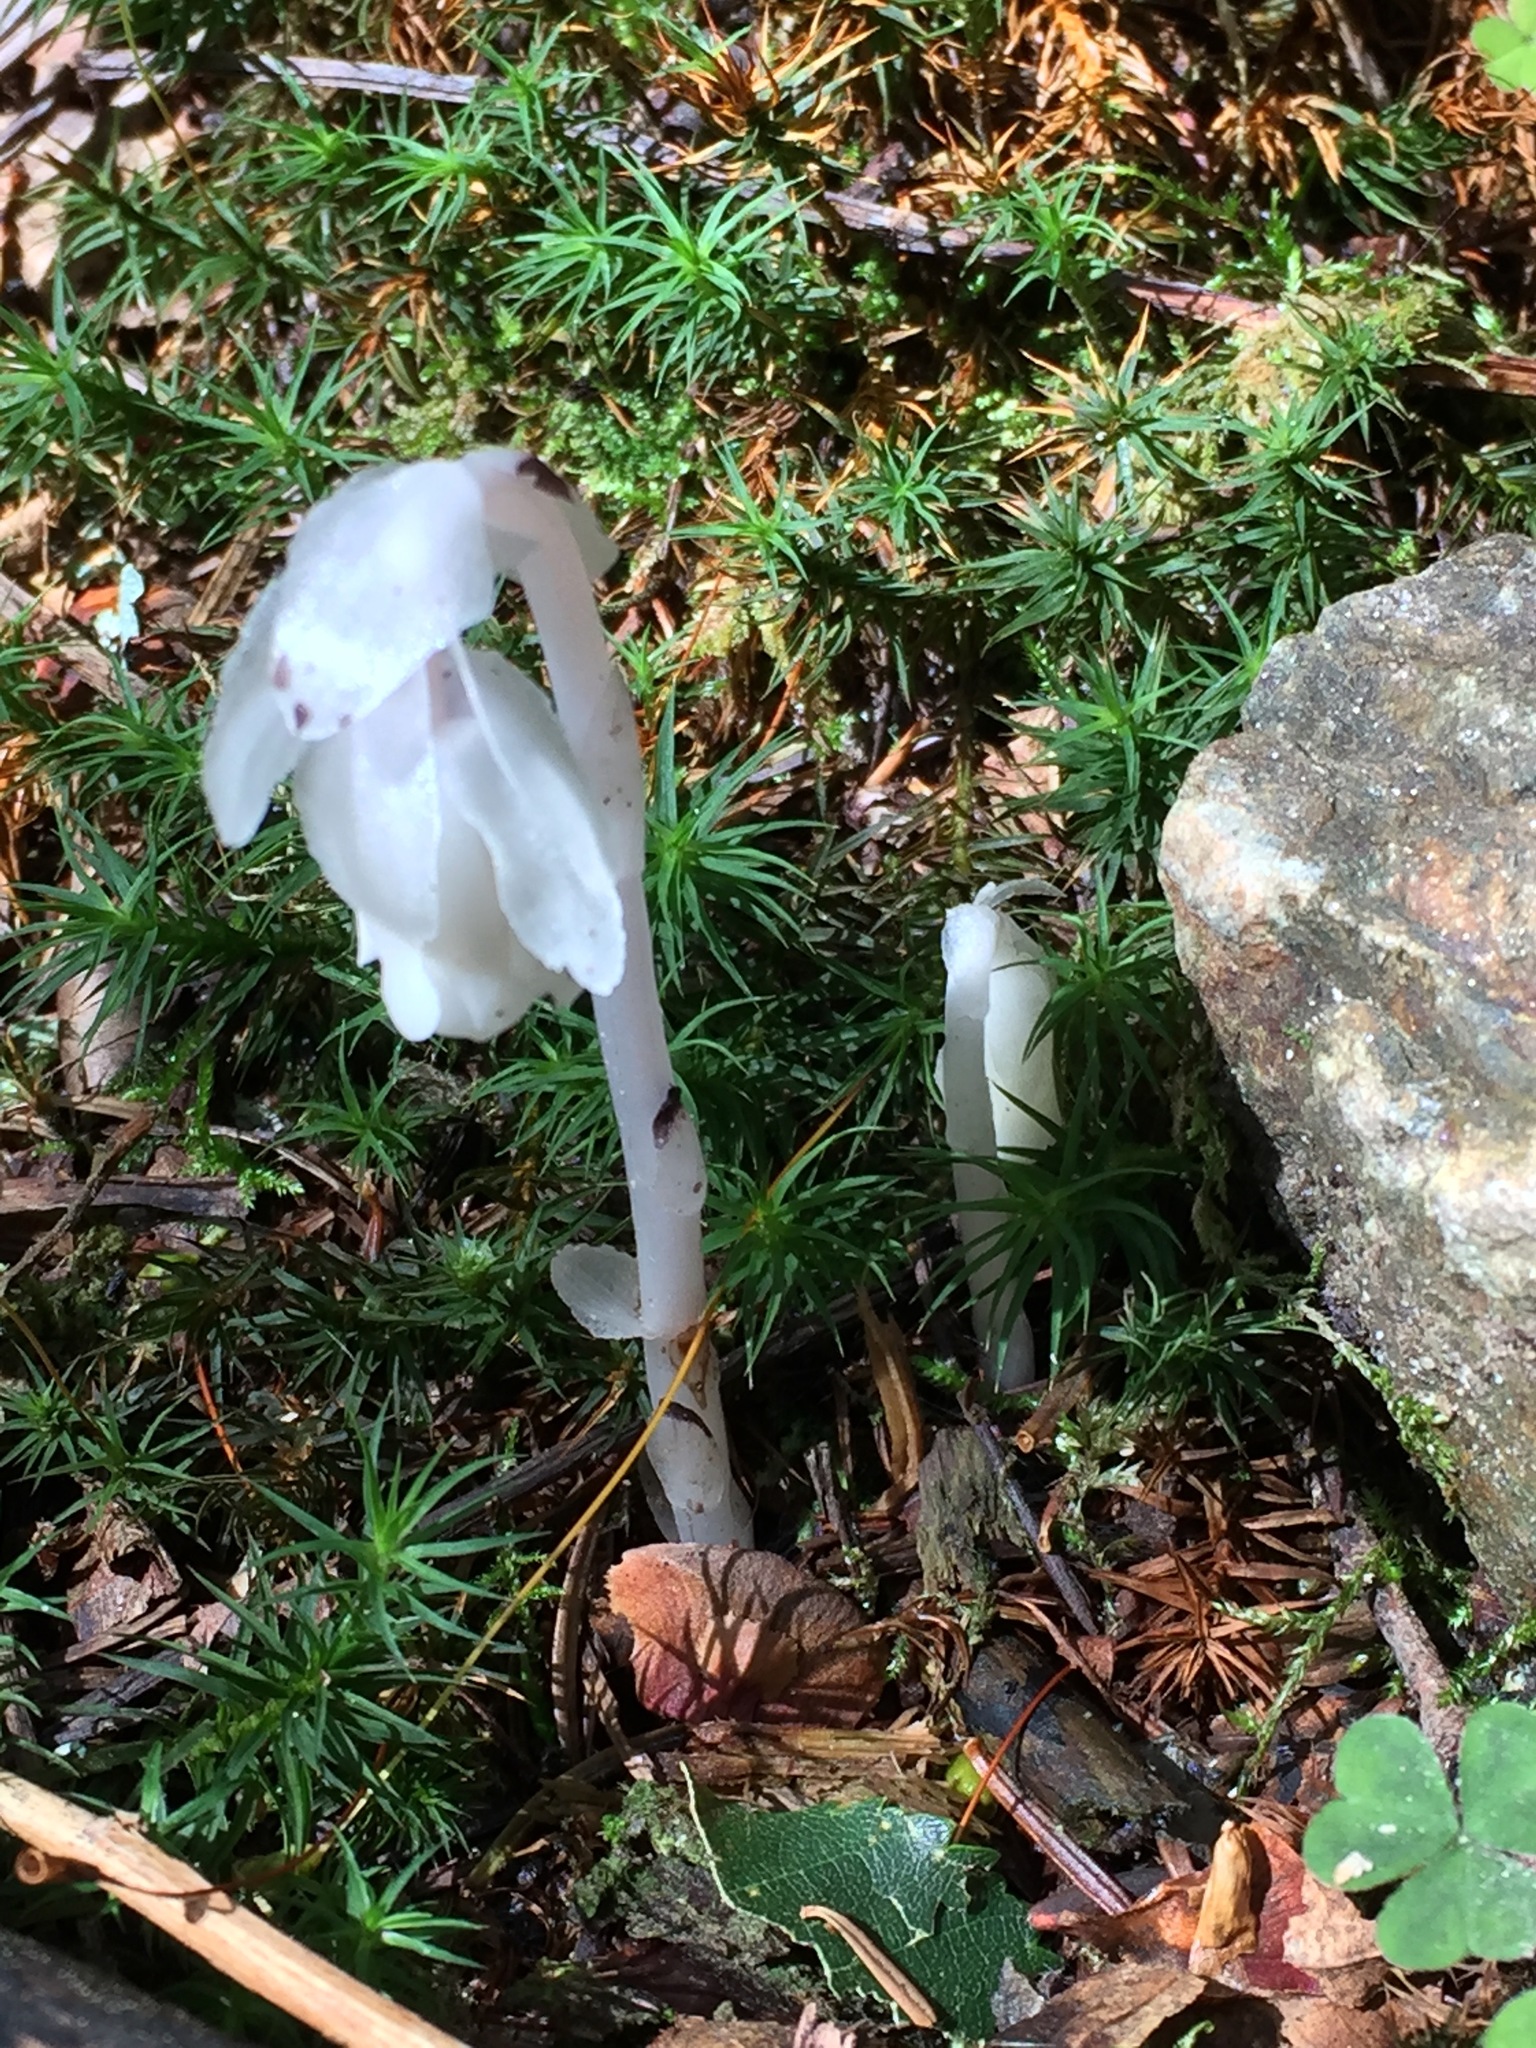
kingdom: Plantae
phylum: Tracheophyta
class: Magnoliopsida
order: Ericales
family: Ericaceae
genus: Monotropa
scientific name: Monotropa uniflora
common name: Convulsion root
